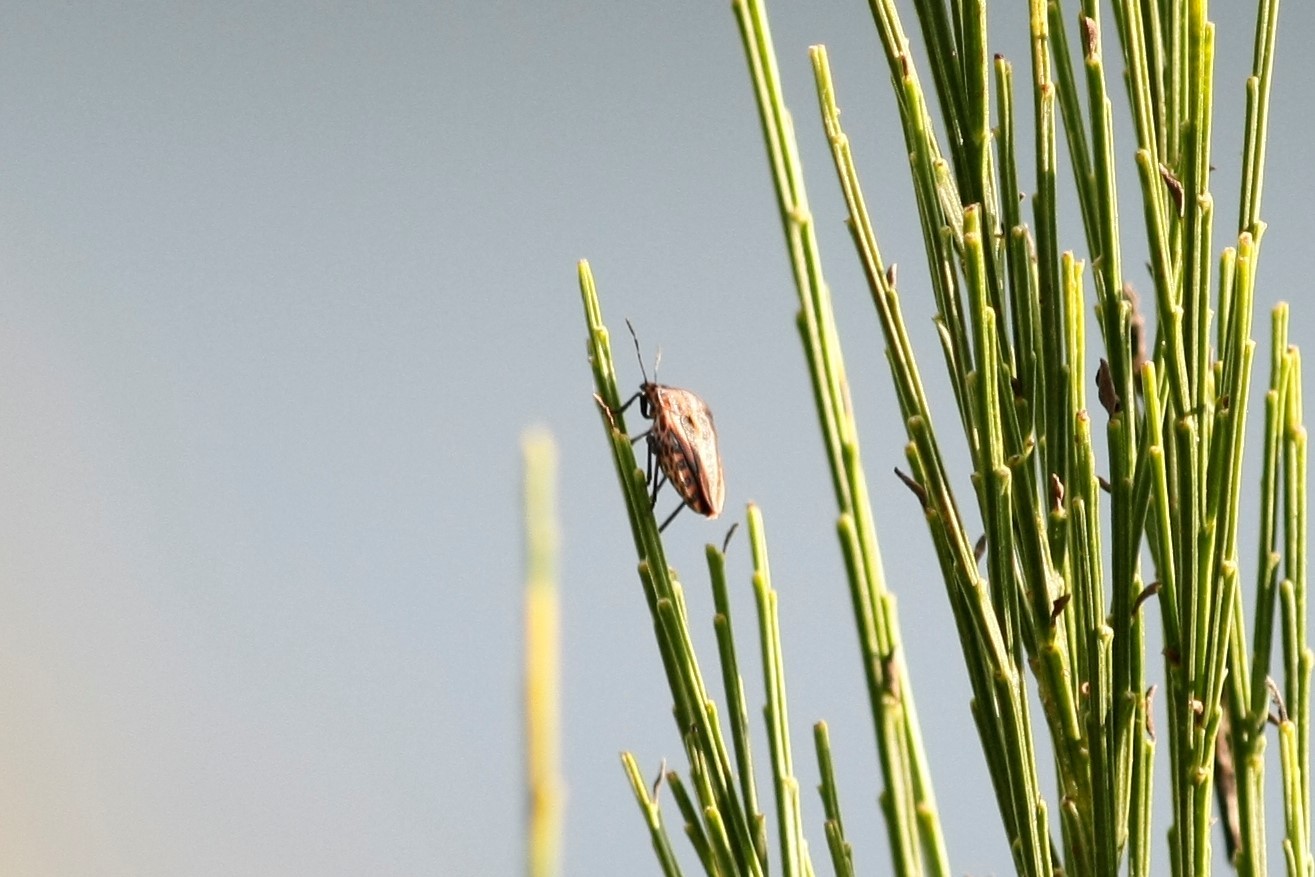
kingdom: Animalia
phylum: Arthropoda
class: Insecta
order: Hemiptera
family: Pentatomidae
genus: Graphosoma
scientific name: Graphosoma italicum
